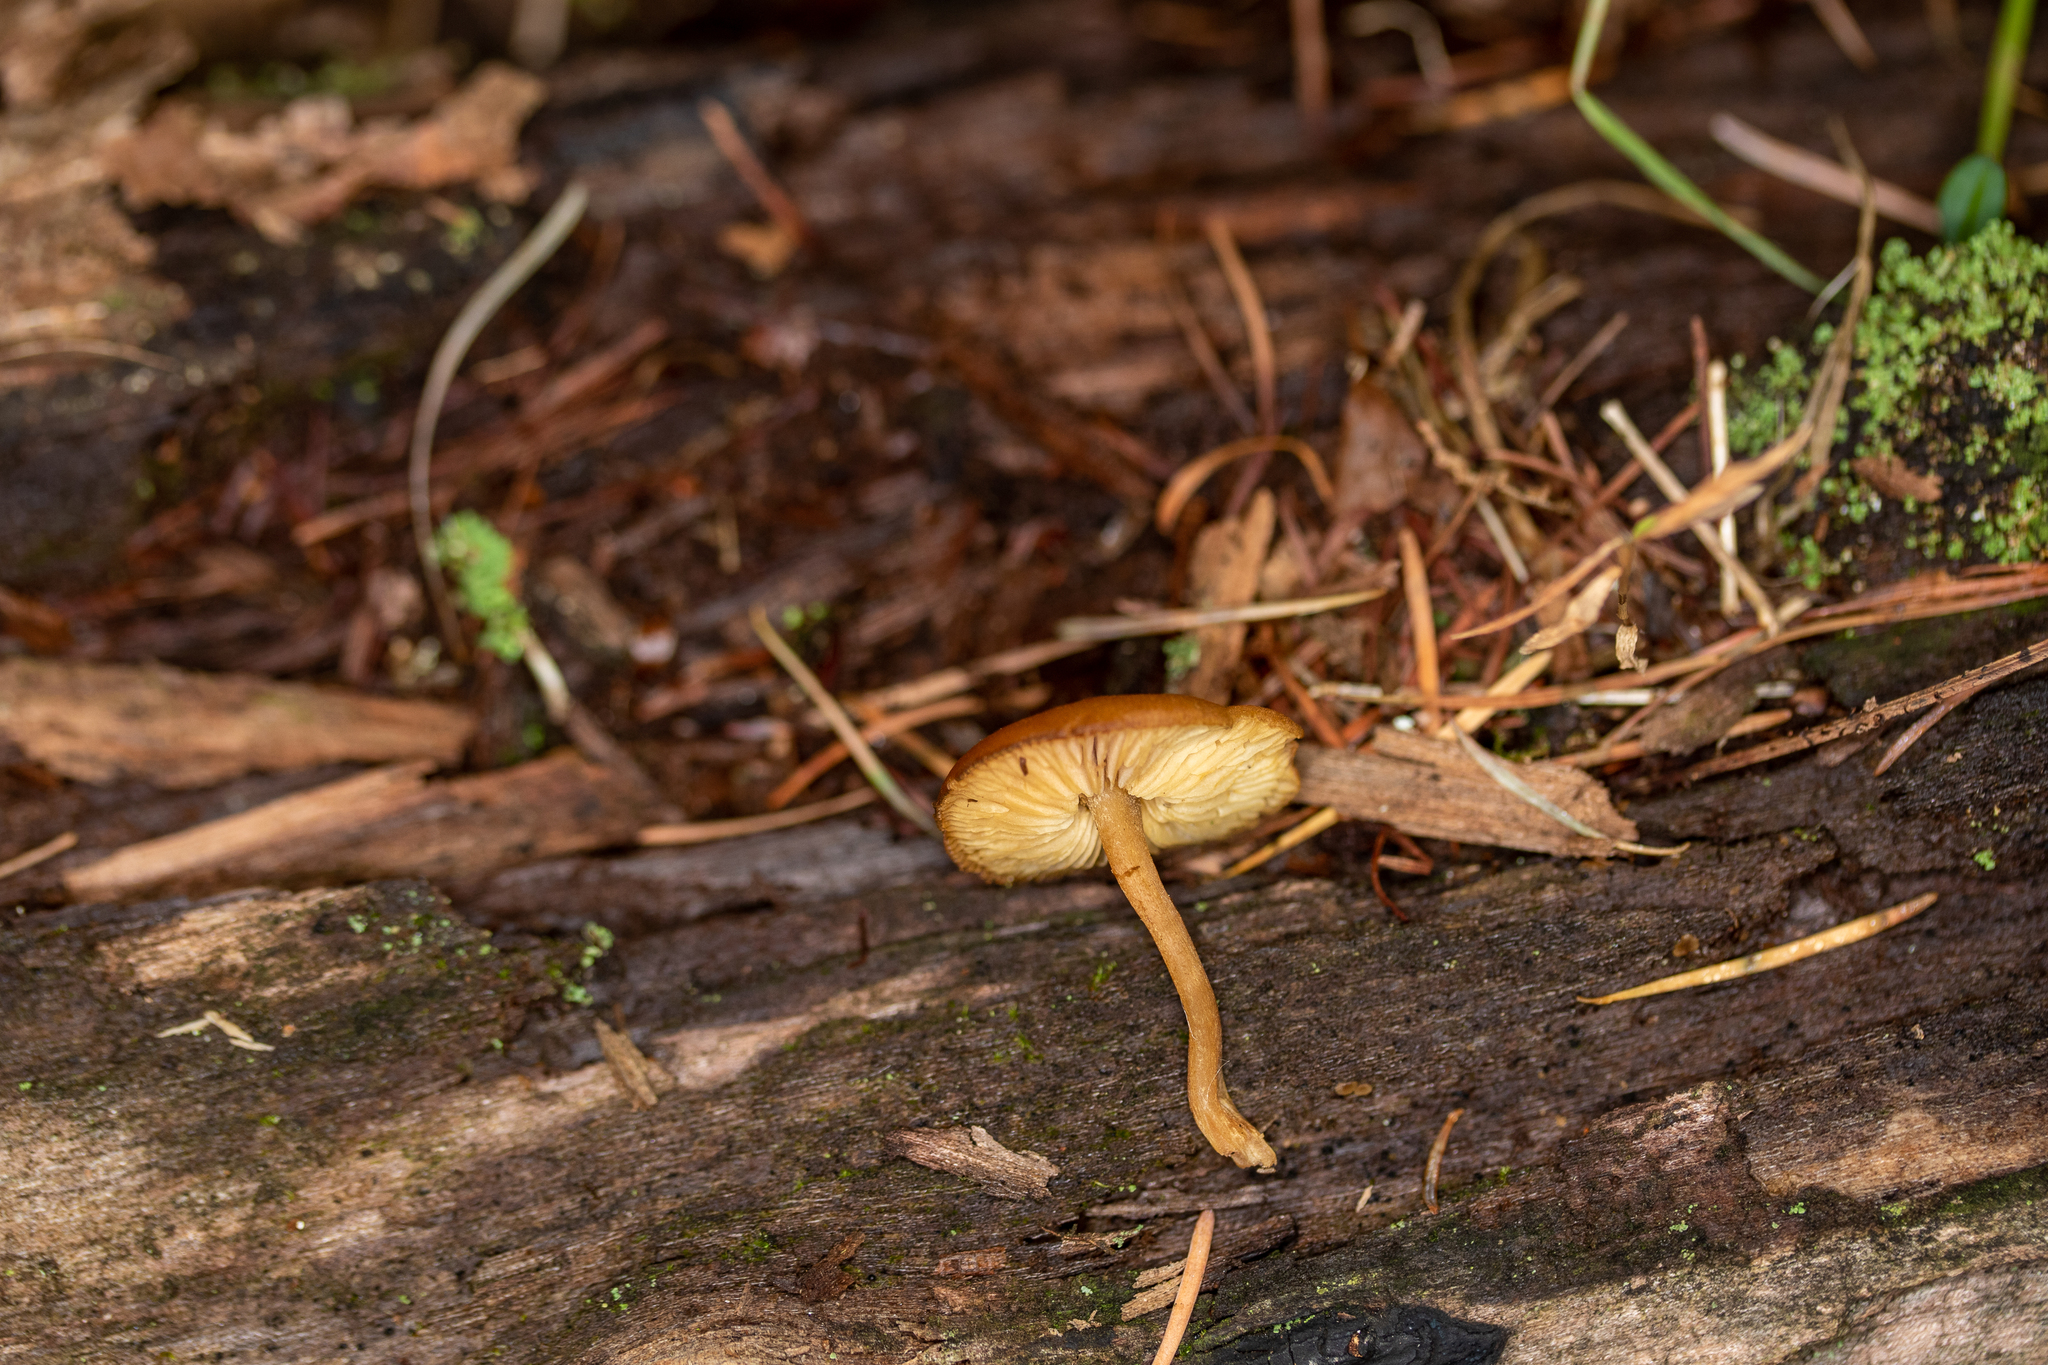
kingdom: Fungi
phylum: Basidiomycota
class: Agaricomycetes
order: Agaricales
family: Callistosporiaceae
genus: Callistosporium
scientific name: Callistosporium luteo-olivaceum
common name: Olive lute
